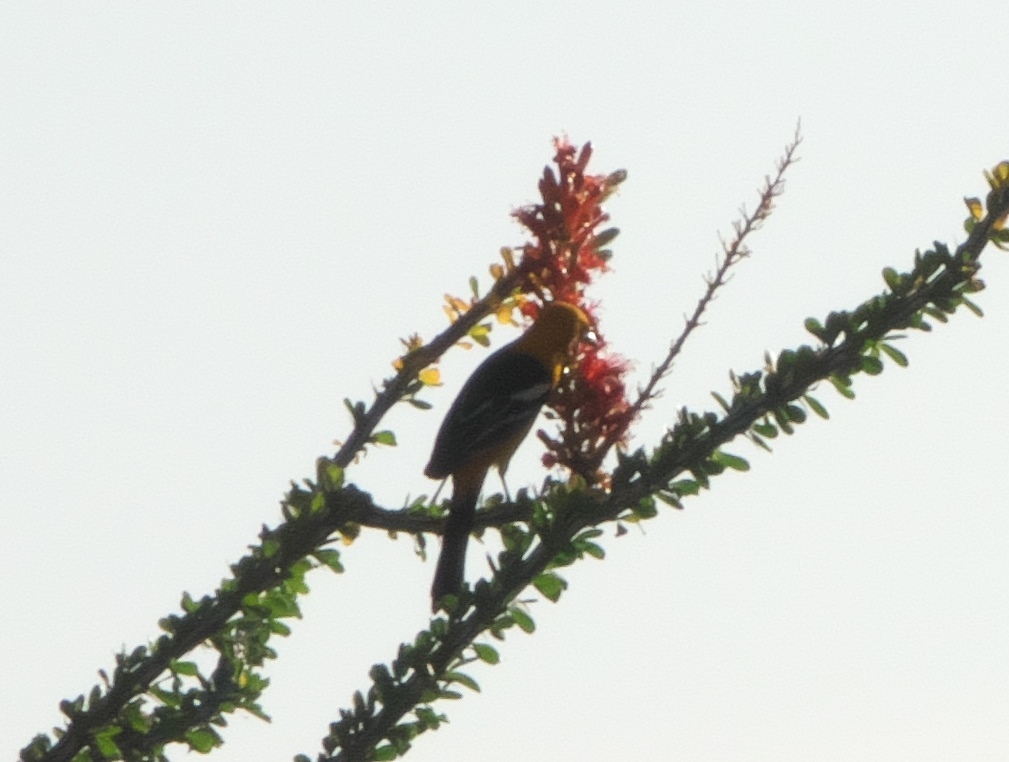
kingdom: Animalia
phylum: Chordata
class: Aves
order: Passeriformes
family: Icteridae
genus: Icterus
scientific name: Icterus cucullatus
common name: Hooded oriole
